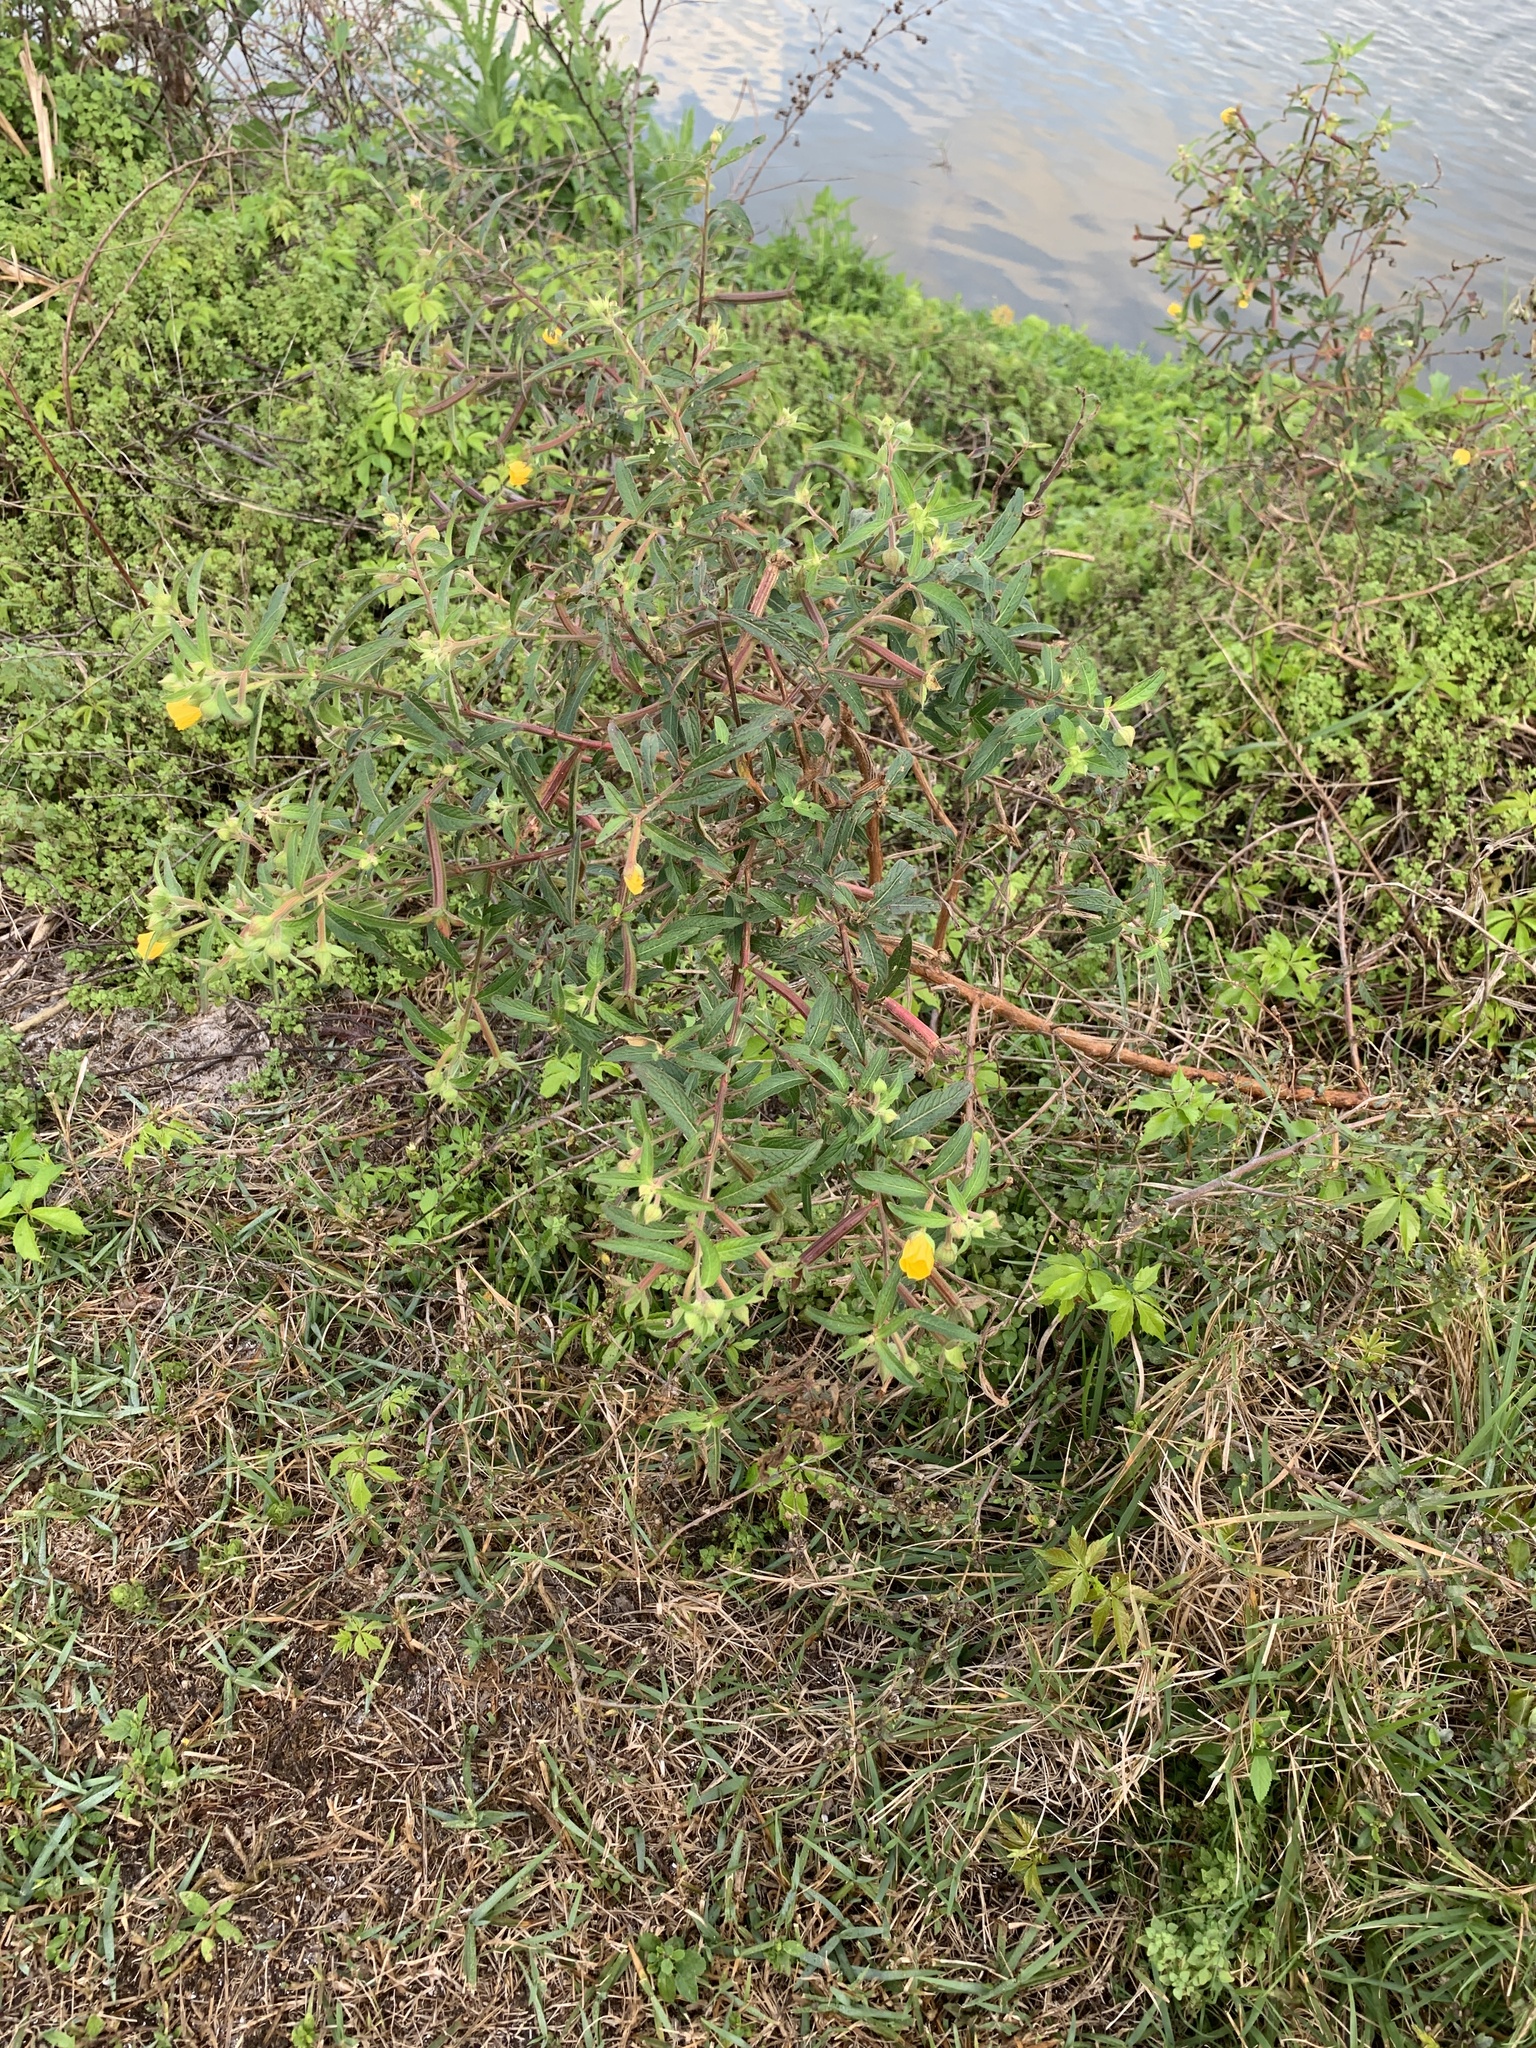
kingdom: Plantae
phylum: Tracheophyta
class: Magnoliopsida
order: Myrtales
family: Onagraceae
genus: Ludwigia
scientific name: Ludwigia octovalvis
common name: Water-primrose
